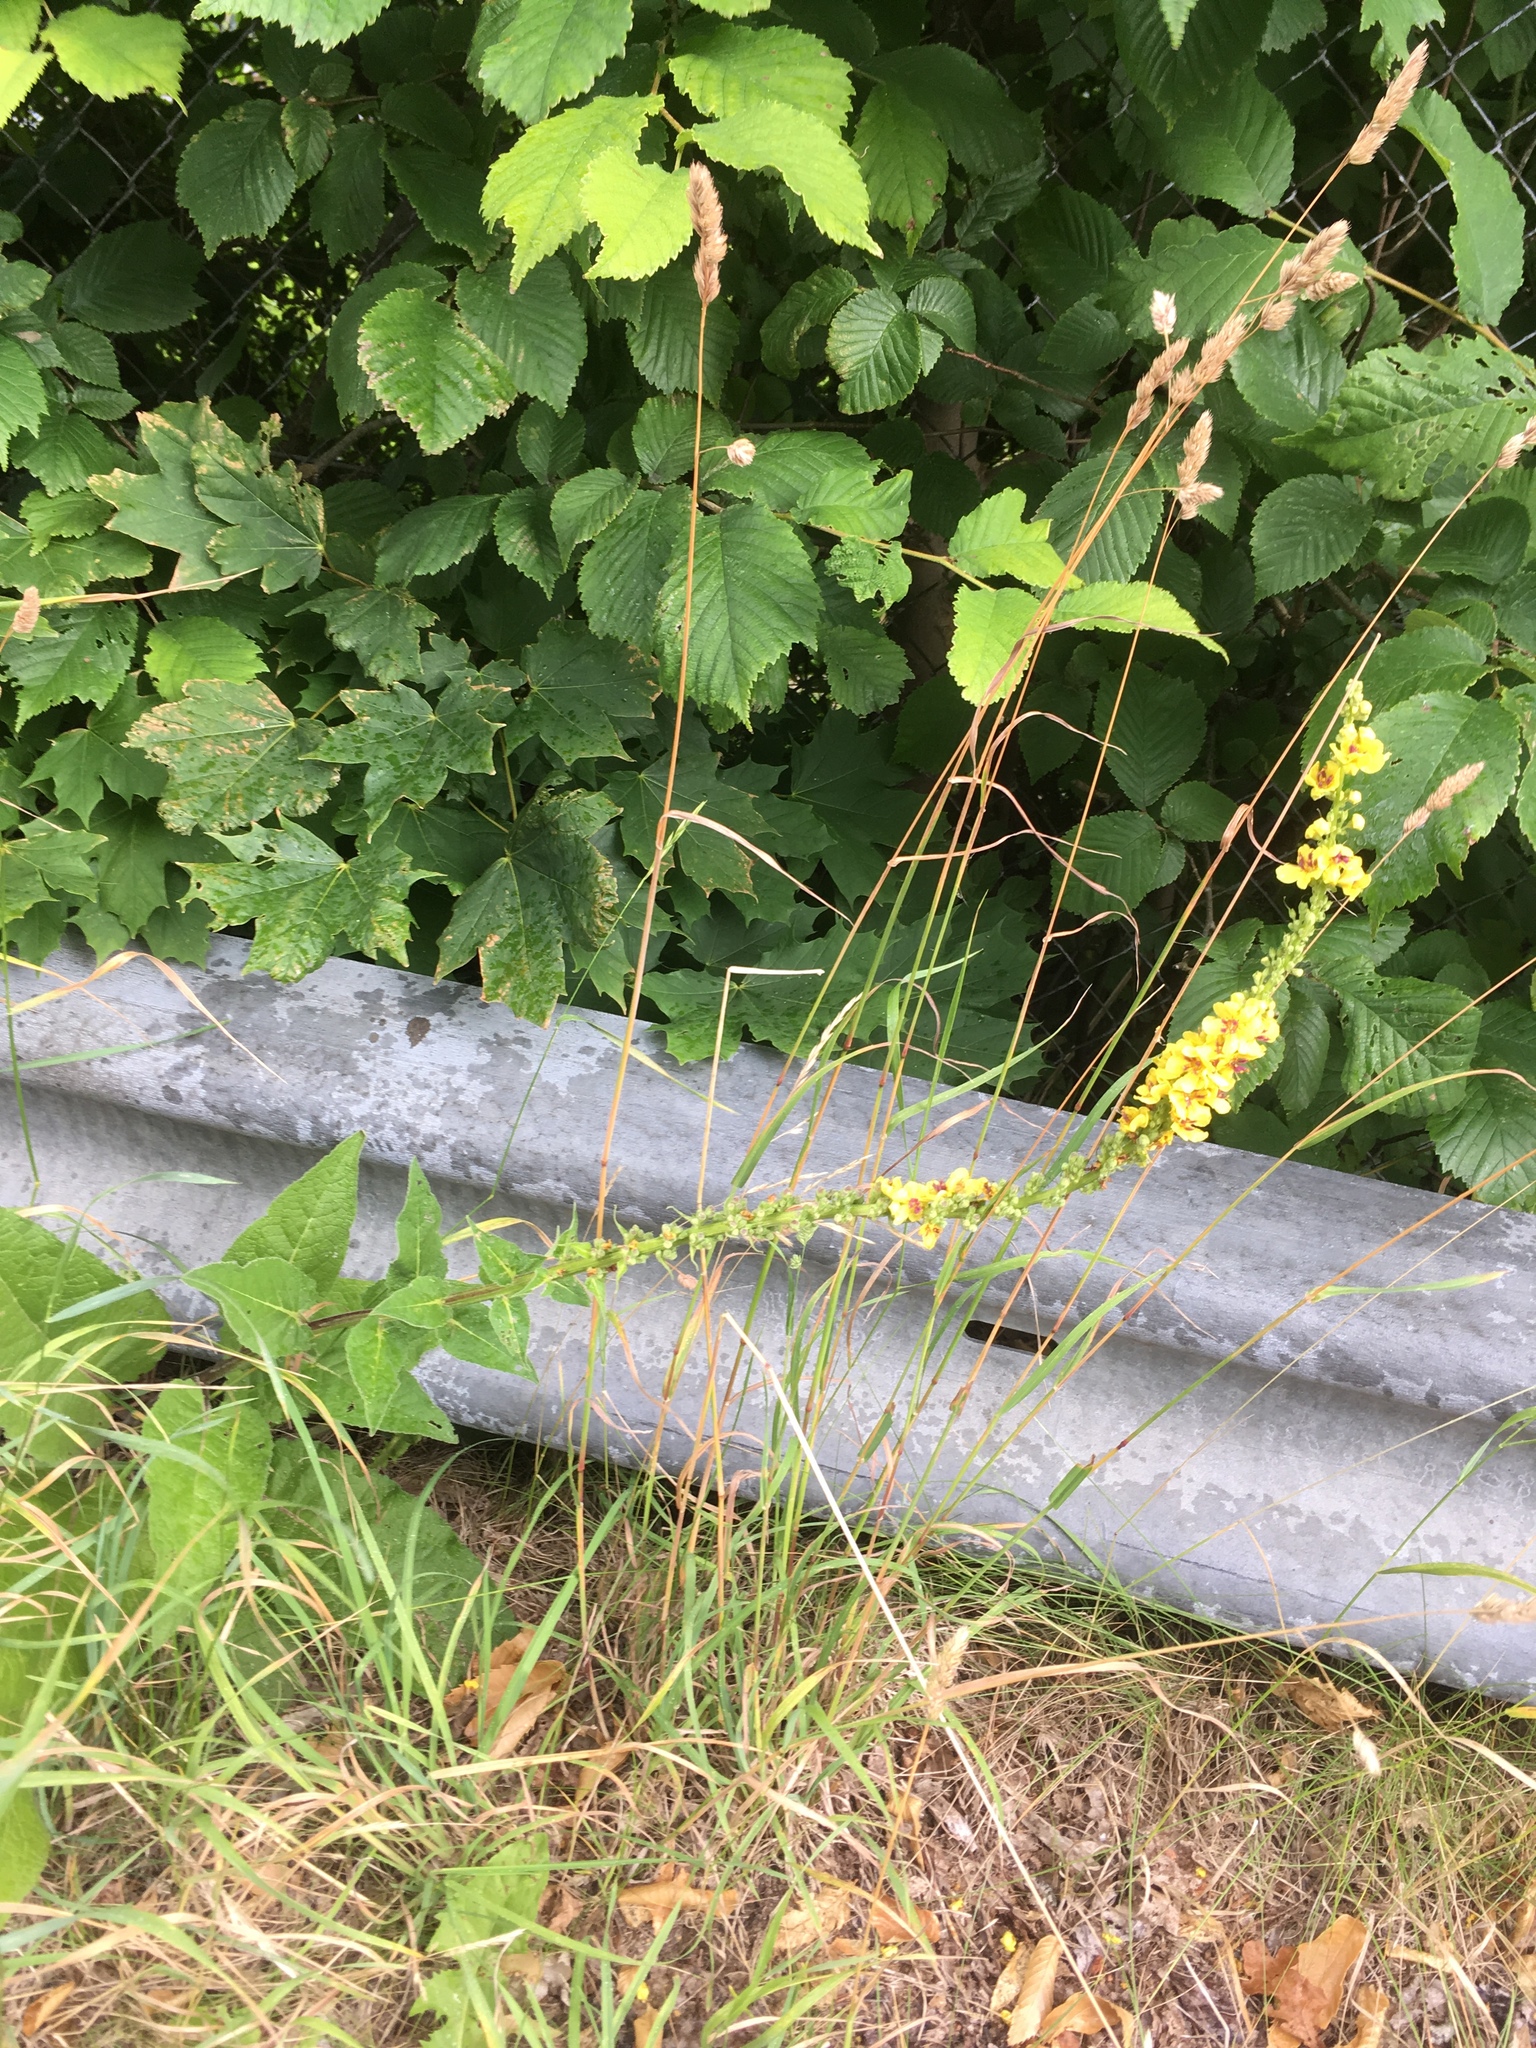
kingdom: Plantae
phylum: Tracheophyta
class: Magnoliopsida
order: Lamiales
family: Scrophulariaceae
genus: Verbascum
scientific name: Verbascum nigrum
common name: Dark mullein
